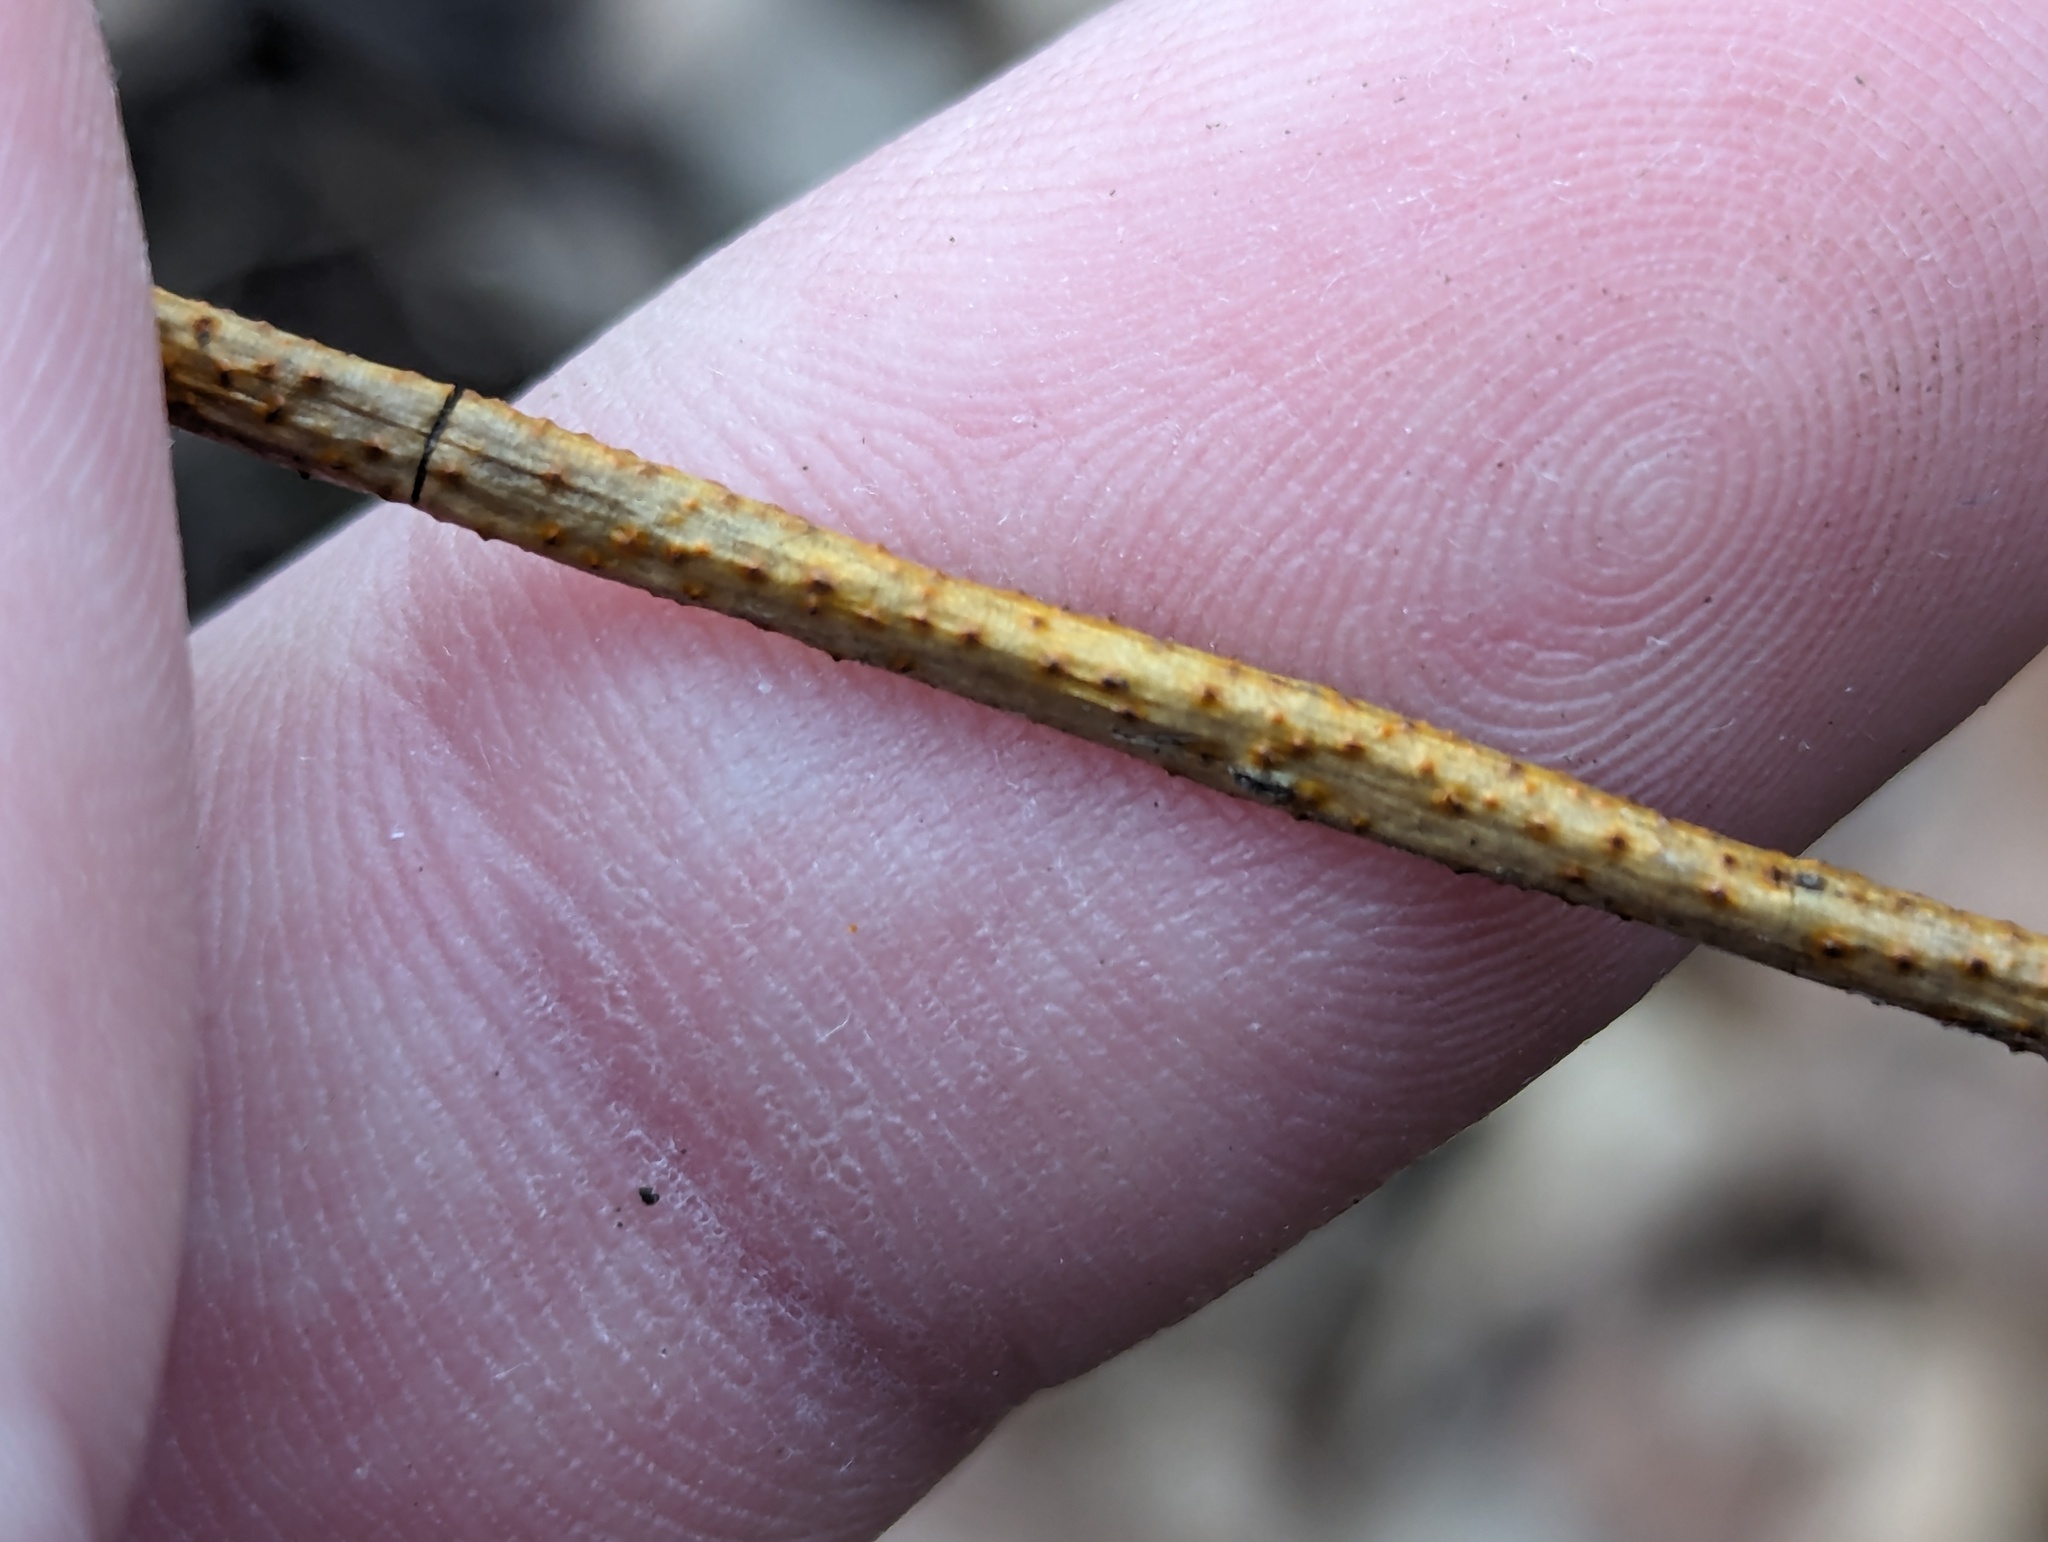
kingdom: Fungi
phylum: Ascomycota
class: Sordariomycetes
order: Diaporthales
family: Cryphonectriaceae
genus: Aurantioporthe
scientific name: Aurantioporthe corni
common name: Dogwood golden canker
